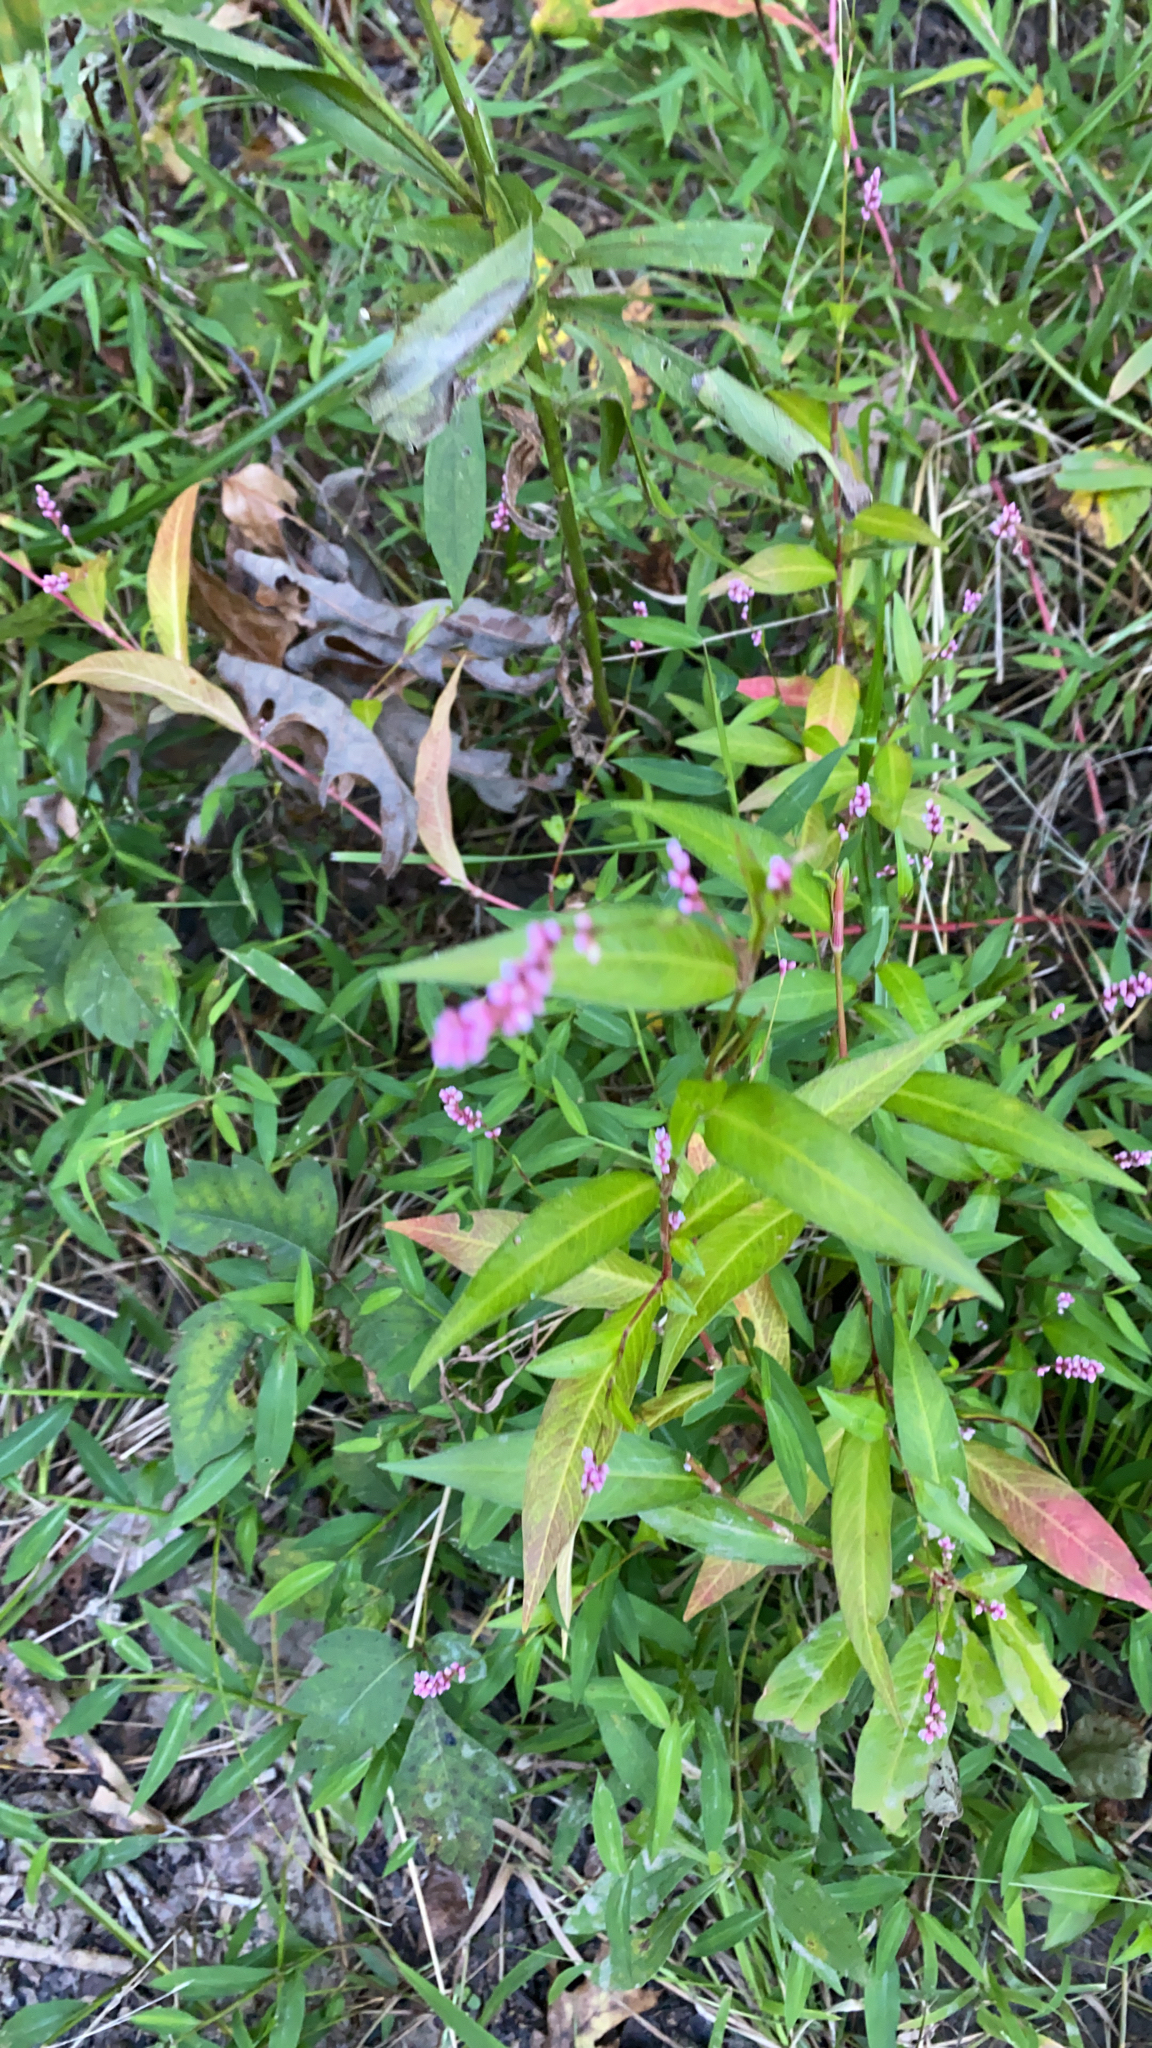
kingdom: Plantae
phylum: Tracheophyta
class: Magnoliopsida
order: Caryophyllales
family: Polygonaceae
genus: Persicaria
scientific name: Persicaria longiseta
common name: Bristly lady's-thumb
